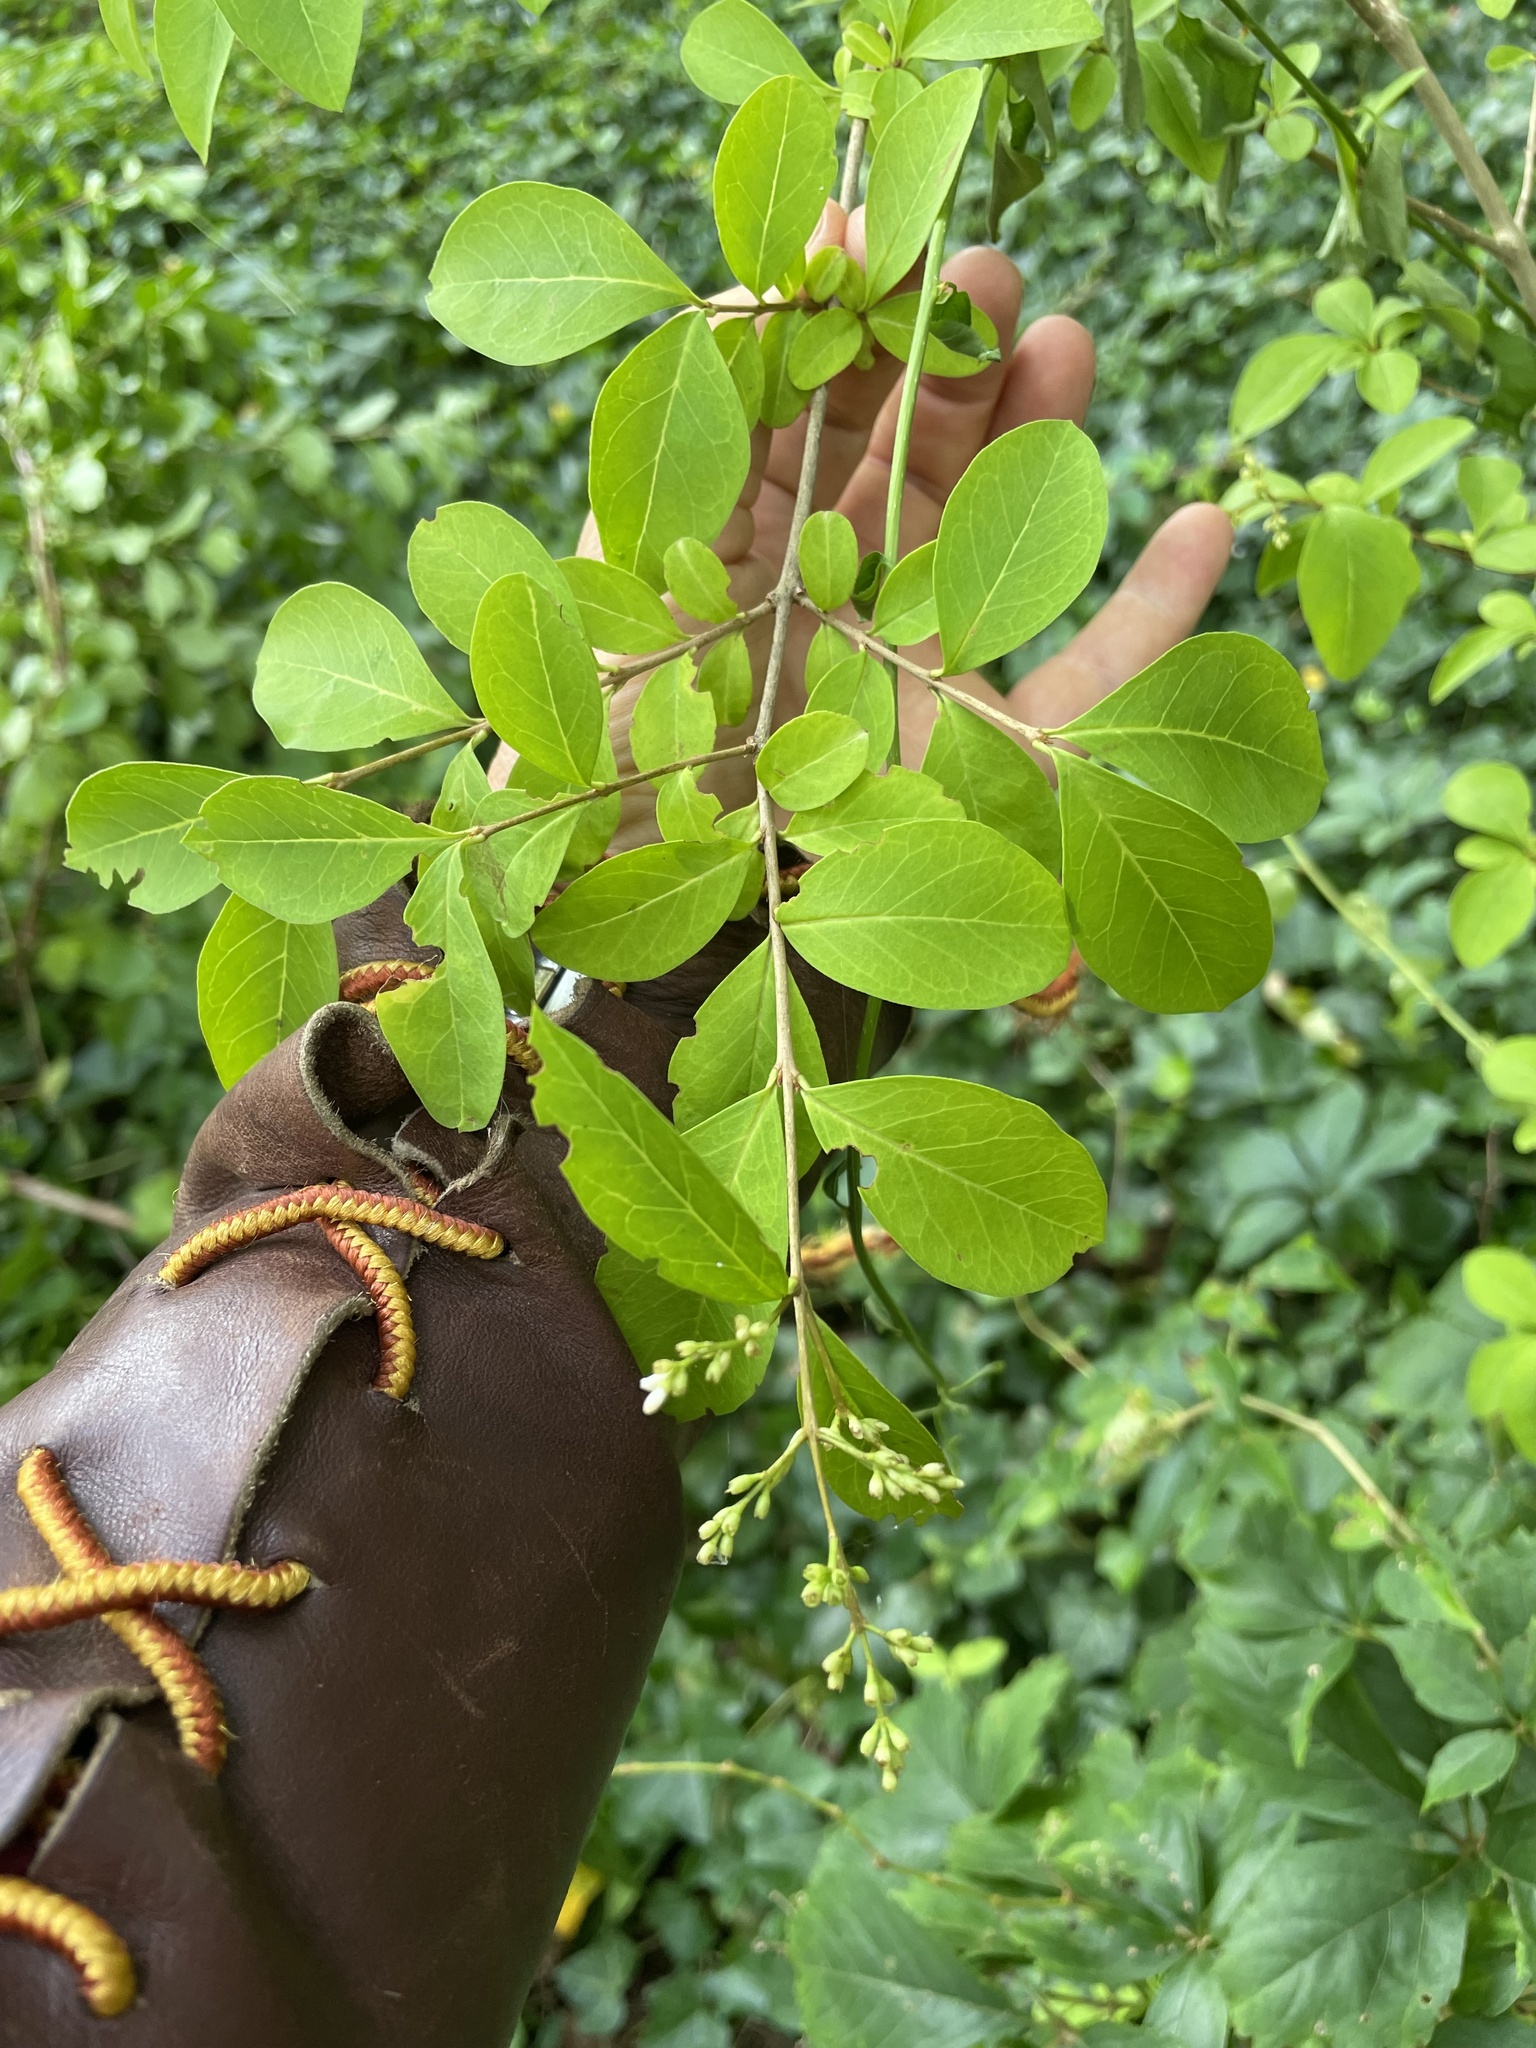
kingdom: Plantae
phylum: Tracheophyta
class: Magnoliopsida
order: Lamiales
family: Oleaceae
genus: Ligustrum
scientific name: Ligustrum ovalifolium
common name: California privet
